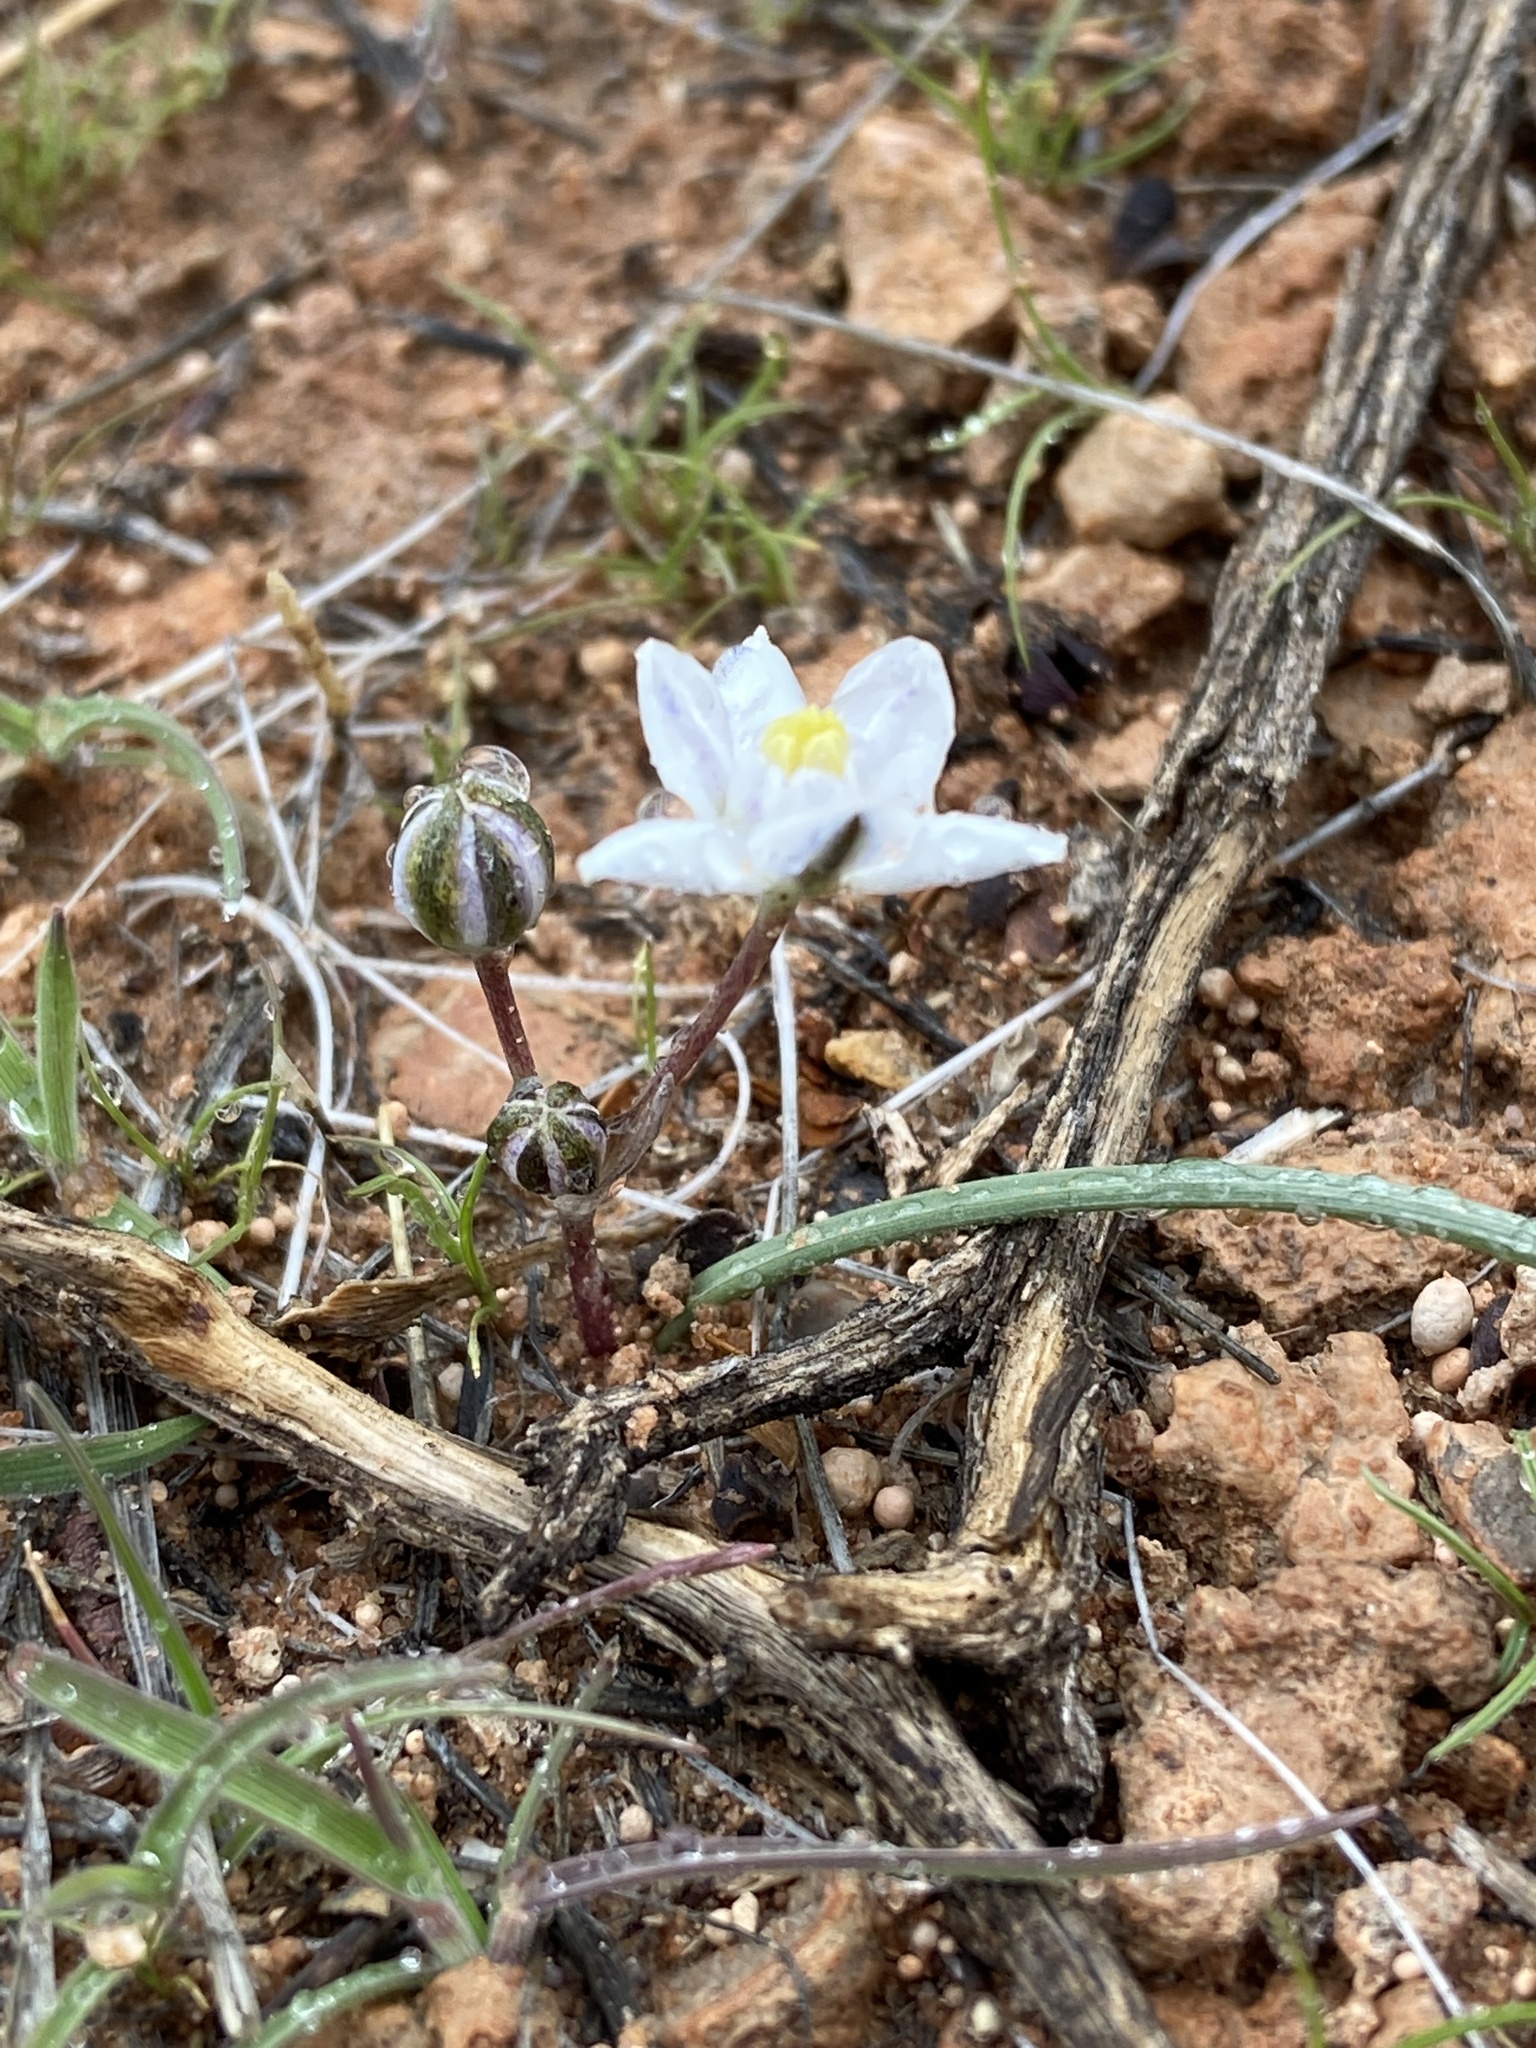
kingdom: Plantae
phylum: Tracheophyta
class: Liliopsida
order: Asparagales
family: Asparagaceae
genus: Muilla
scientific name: Muilla coronata
